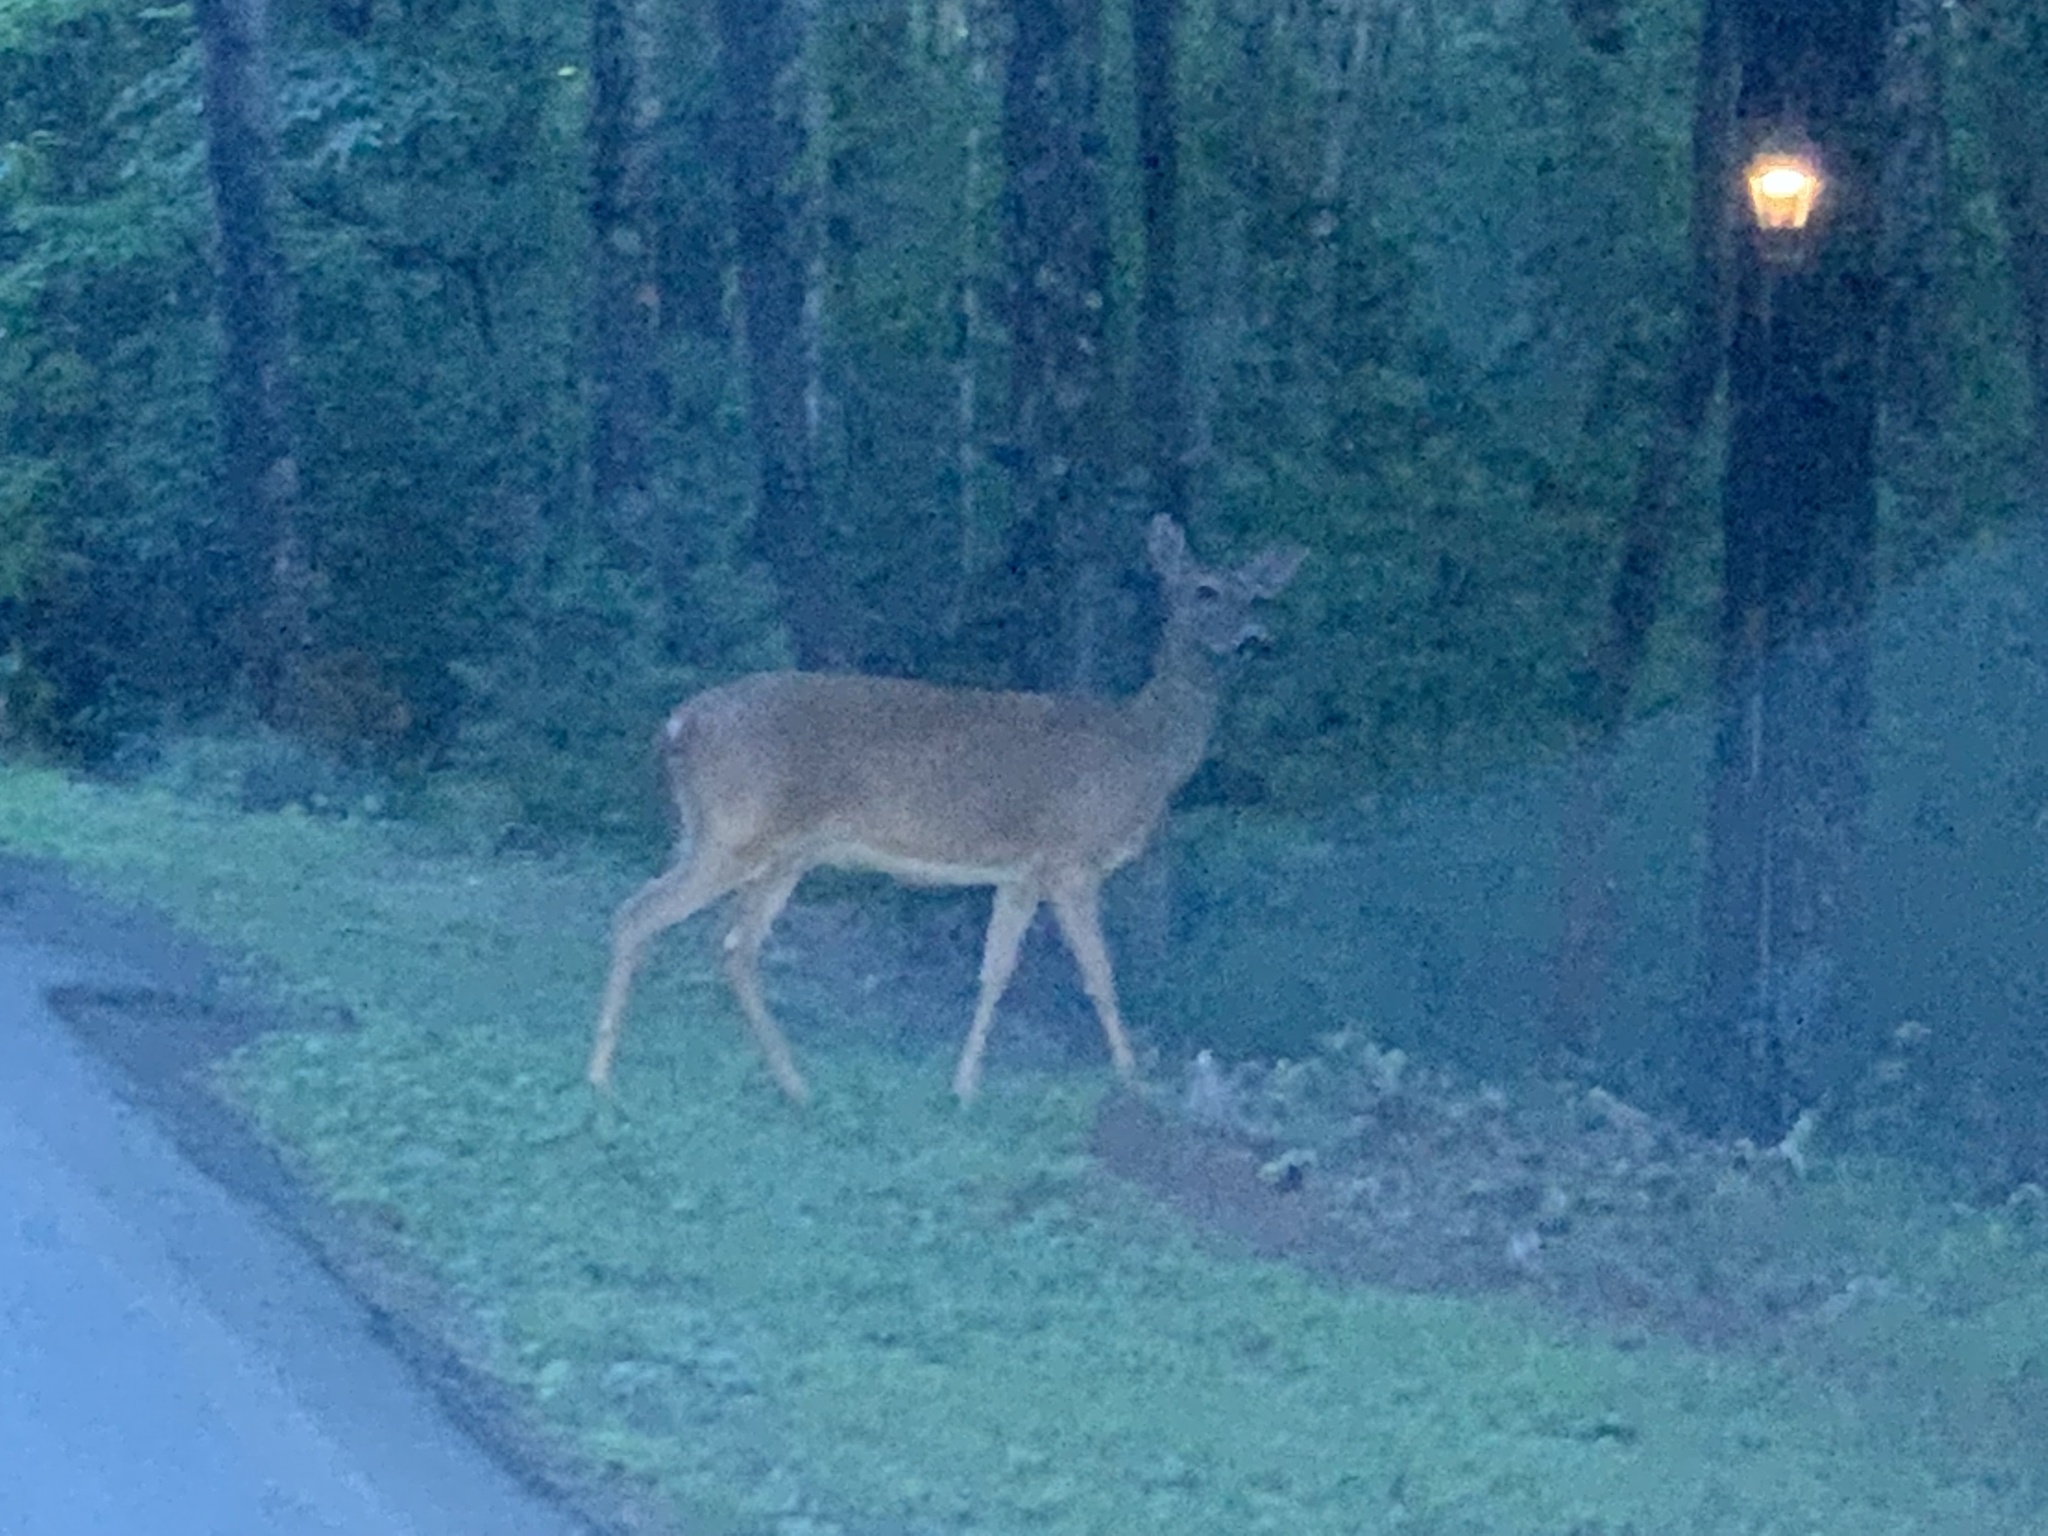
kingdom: Animalia
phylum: Chordata
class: Mammalia
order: Artiodactyla
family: Cervidae
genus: Odocoileus
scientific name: Odocoileus virginianus
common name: White-tailed deer
